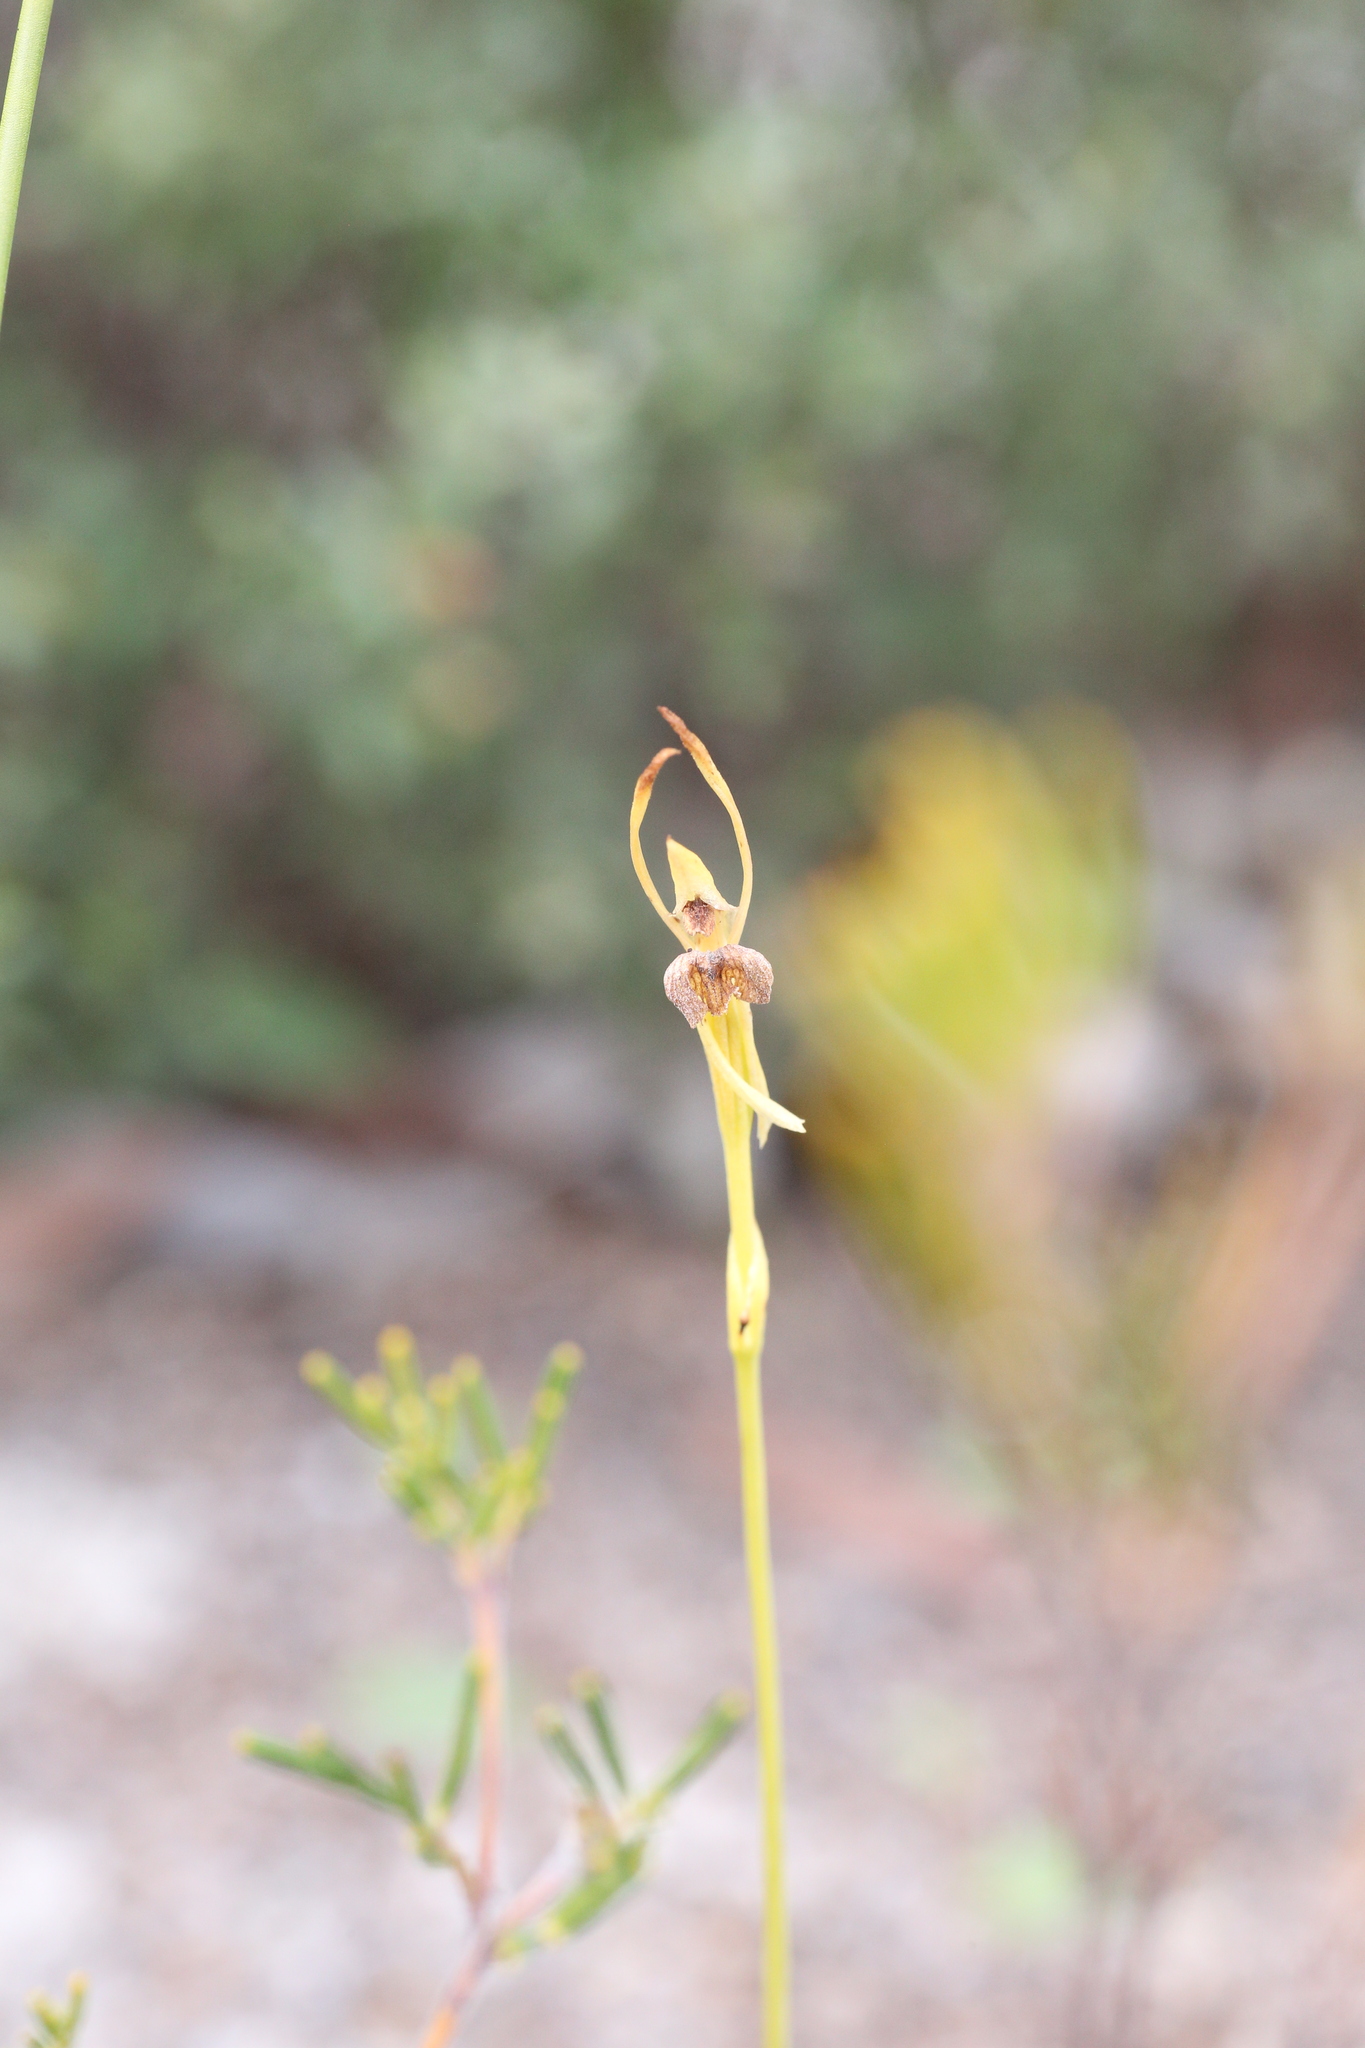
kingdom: Plantae
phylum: Tracheophyta
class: Liliopsida
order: Asparagales
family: Orchidaceae
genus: Leporella
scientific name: Leporella fimbriata
